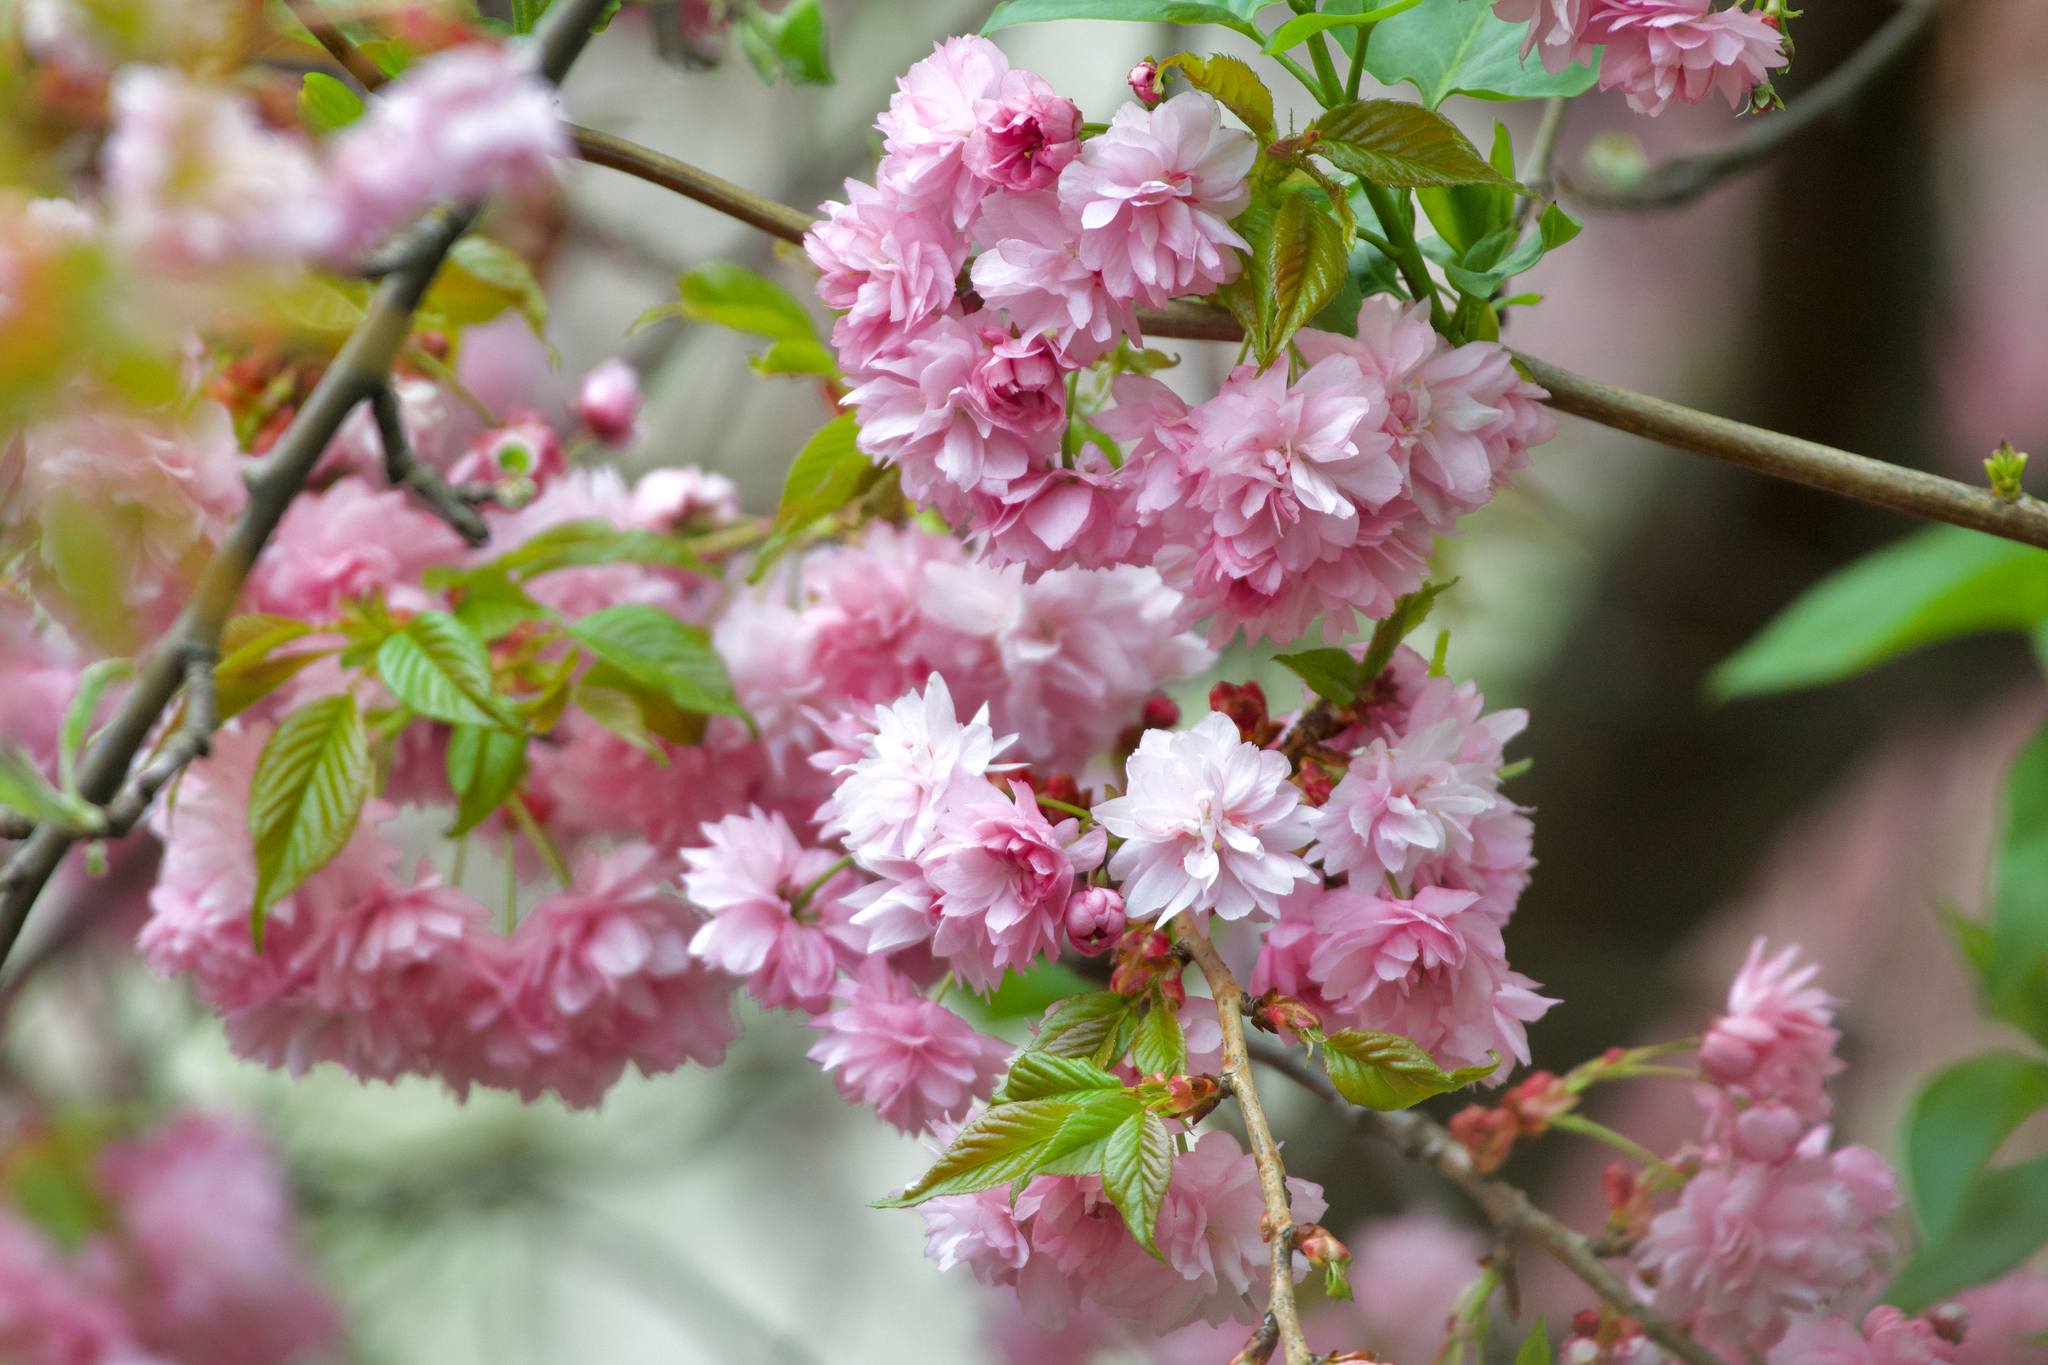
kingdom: Plantae
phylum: Tracheophyta
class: Magnoliopsida
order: Rosales
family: Rosaceae
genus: Prunus
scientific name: Prunus serrulata
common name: Japanese cherry
